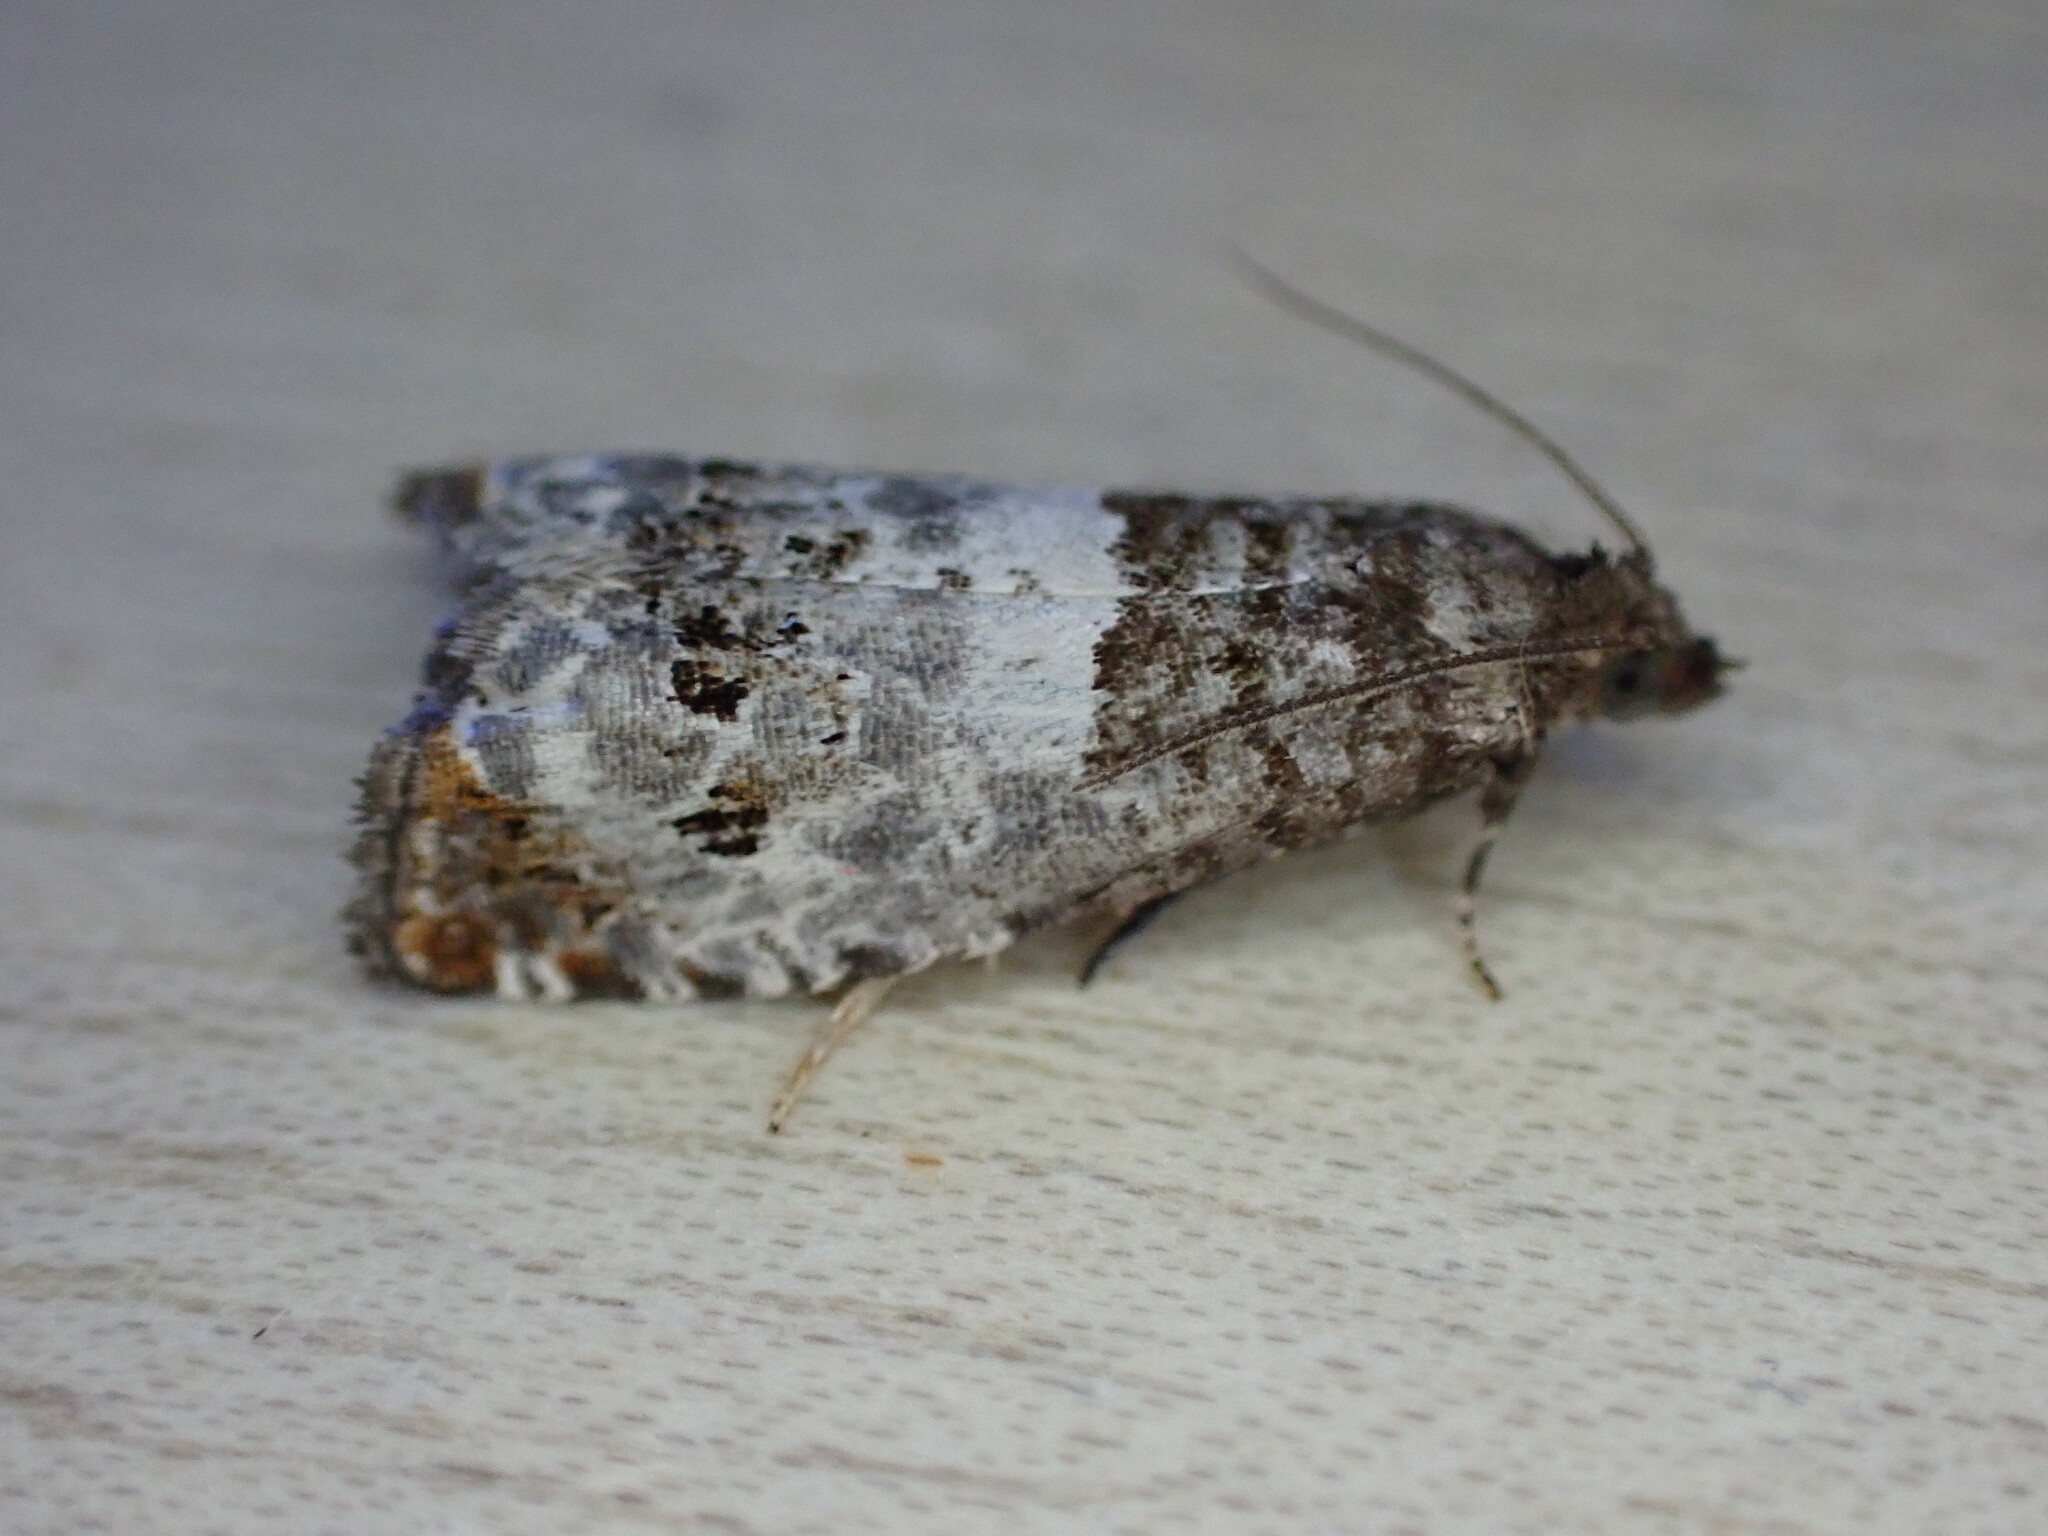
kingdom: Animalia
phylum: Arthropoda
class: Insecta
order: Lepidoptera
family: Tortricidae
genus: Notocelia
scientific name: Notocelia rosaecolana
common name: Common rose bell
